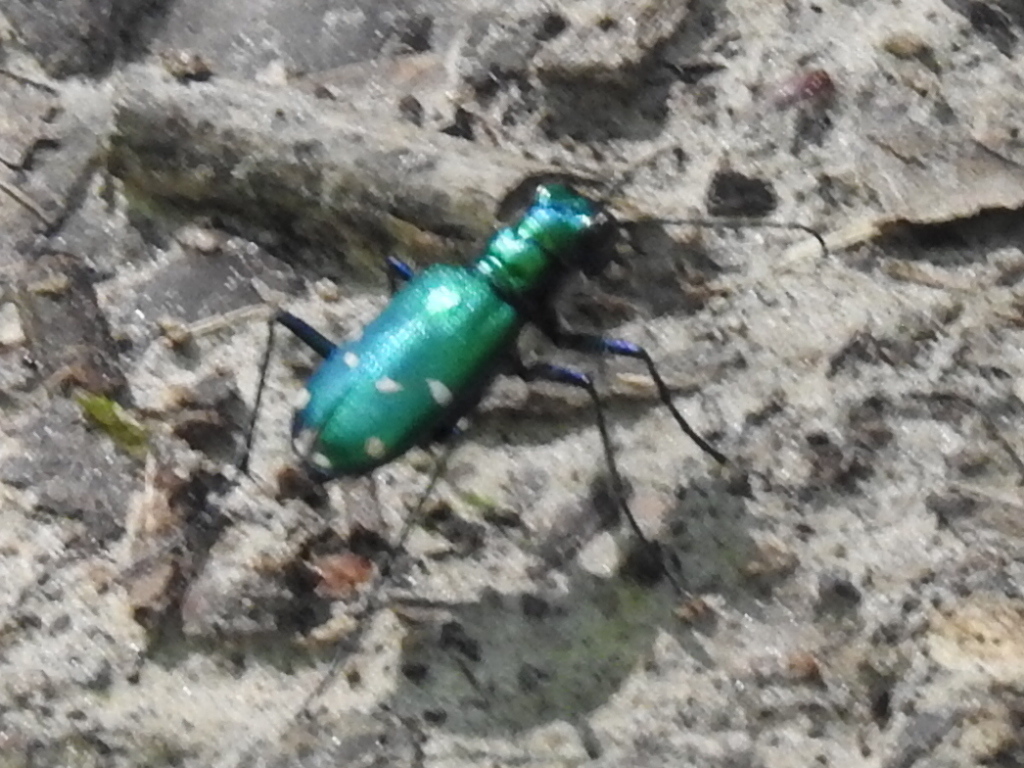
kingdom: Animalia
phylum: Arthropoda
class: Insecta
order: Coleoptera
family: Carabidae
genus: Cicindela
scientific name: Cicindela sexguttata
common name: Six-spotted tiger beetle
